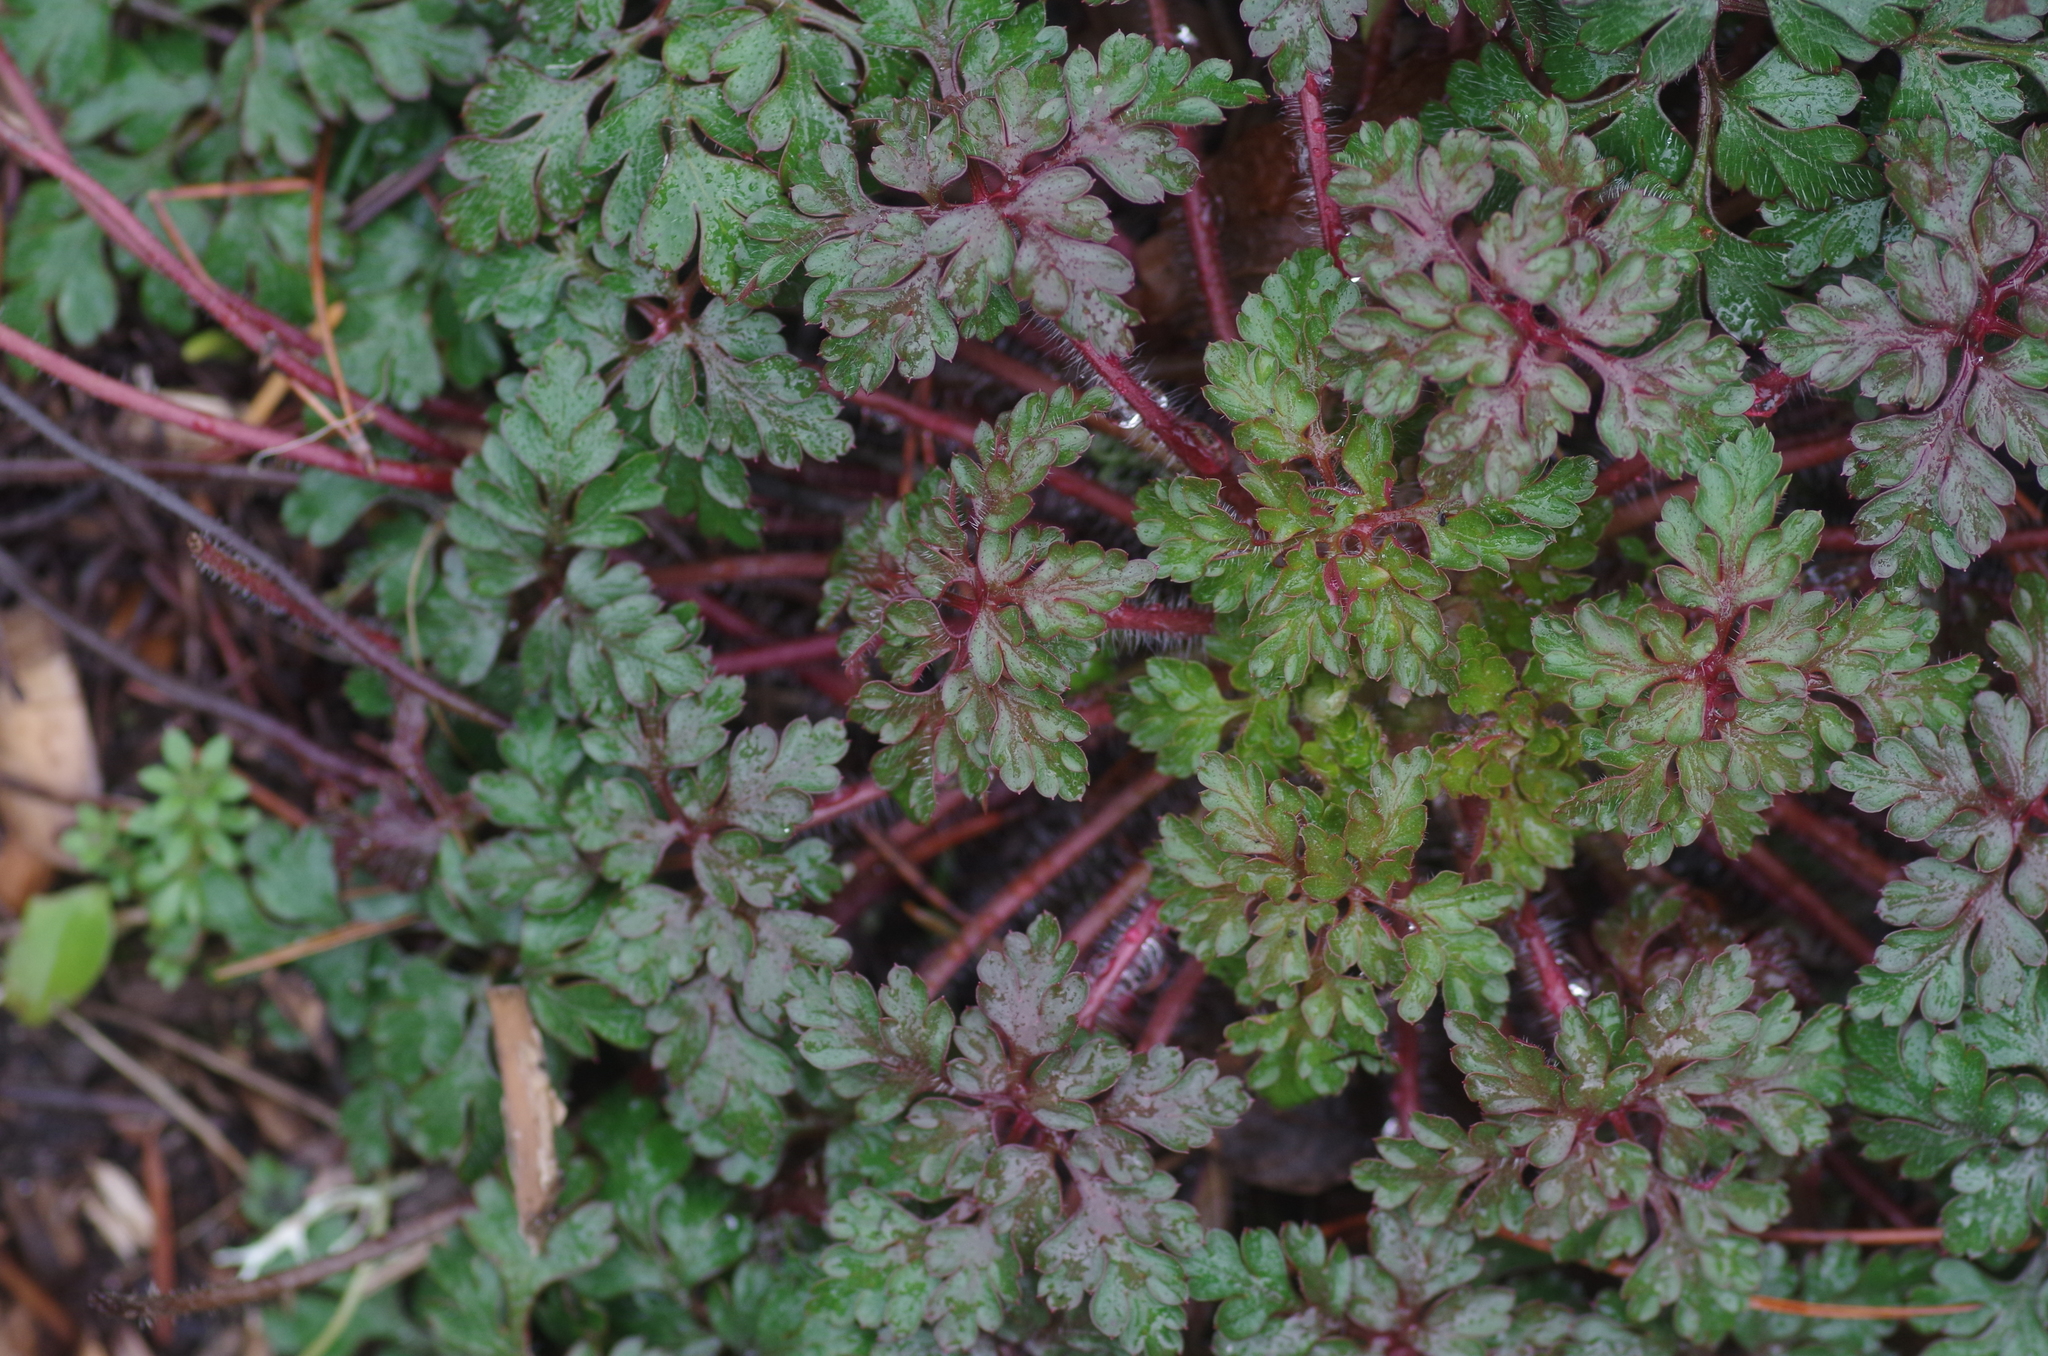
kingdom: Plantae
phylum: Tracheophyta
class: Magnoliopsida
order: Geraniales
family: Geraniaceae
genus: Geranium
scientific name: Geranium robertianum
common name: Herb-robert
